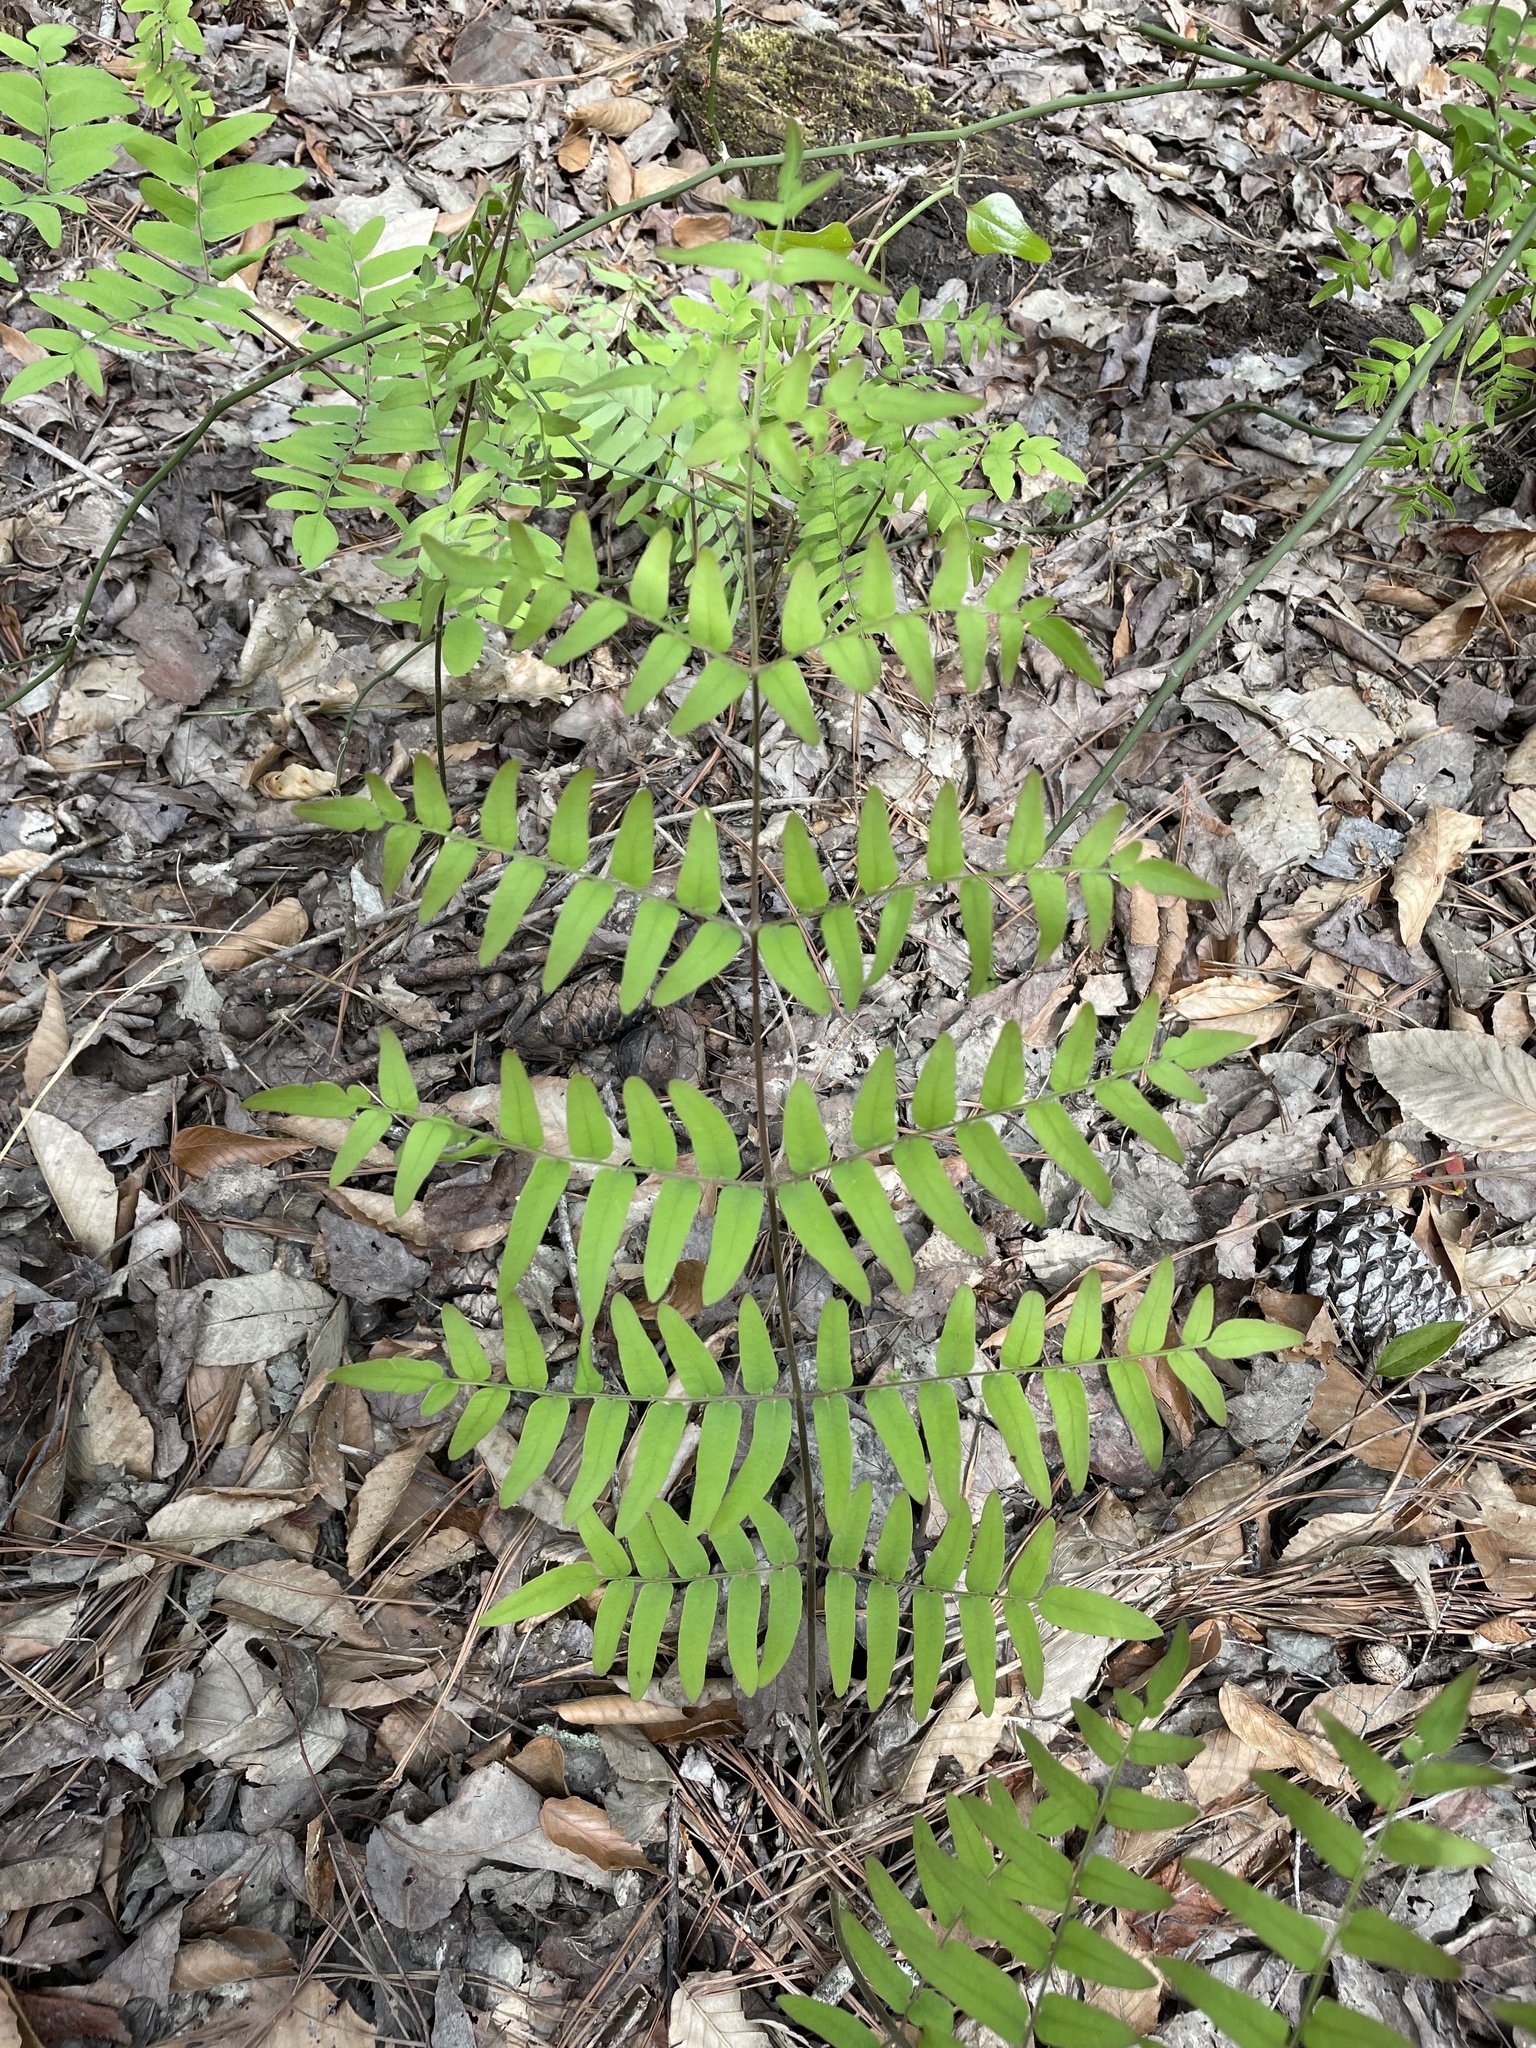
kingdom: Plantae
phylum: Tracheophyta
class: Polypodiopsida
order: Osmundales
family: Osmundaceae
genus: Osmunda
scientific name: Osmunda spectabilis
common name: American royal fern
